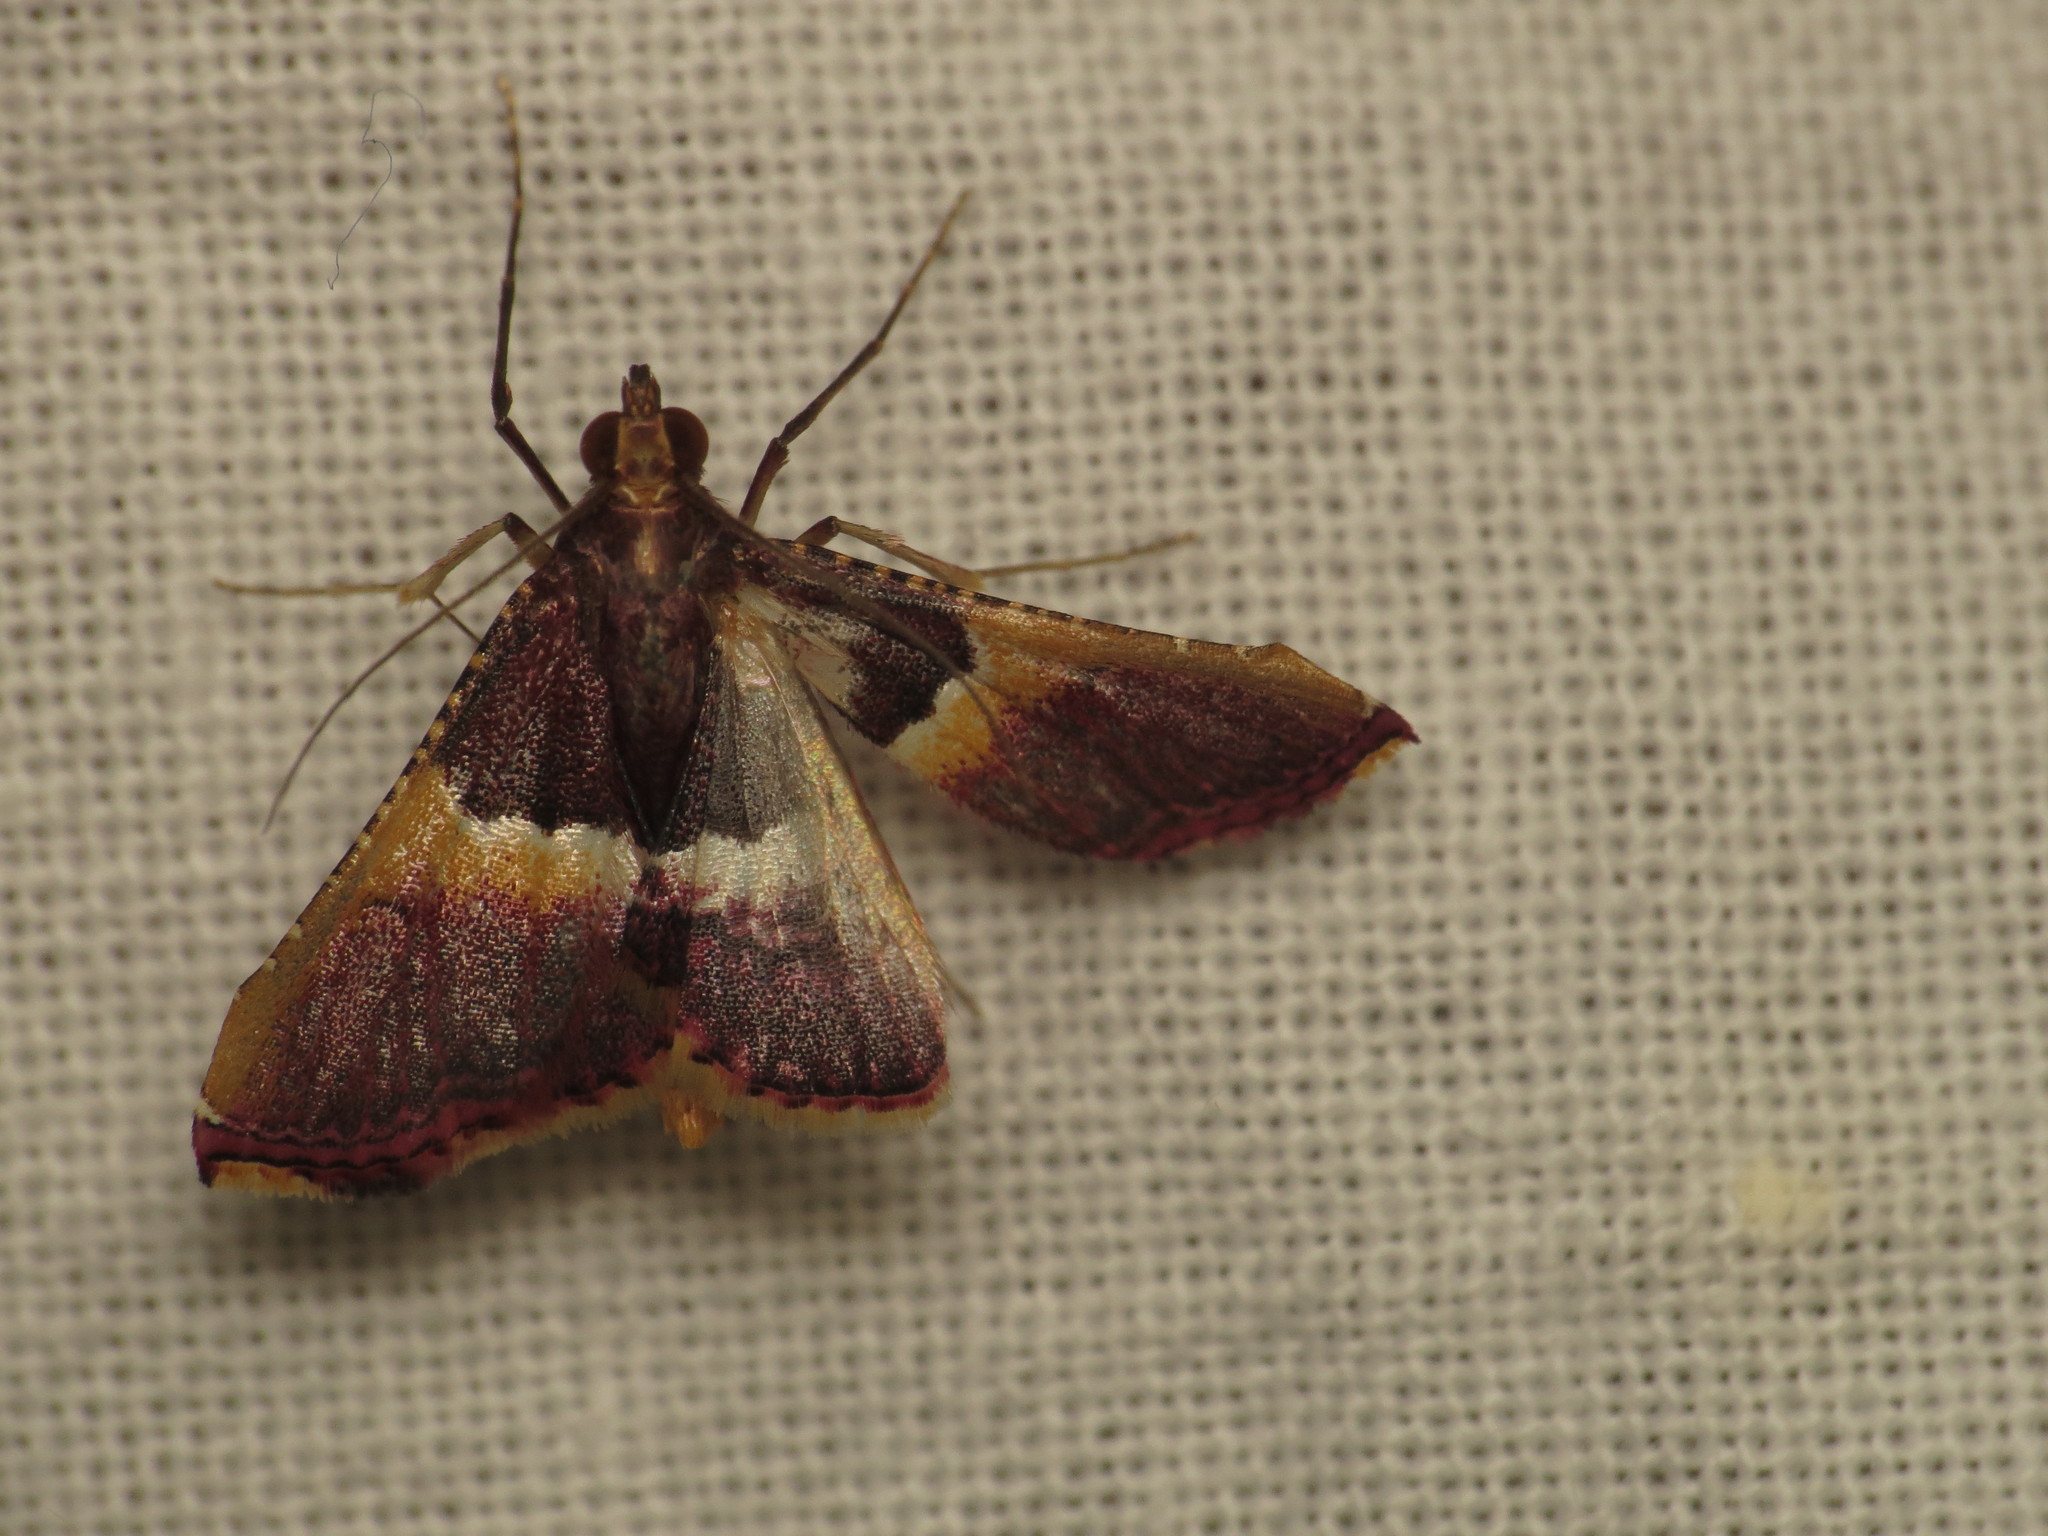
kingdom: Animalia
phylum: Arthropoda
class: Insecta
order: Lepidoptera
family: Pyralidae
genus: Endotricha
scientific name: Endotricha mesenterialis
